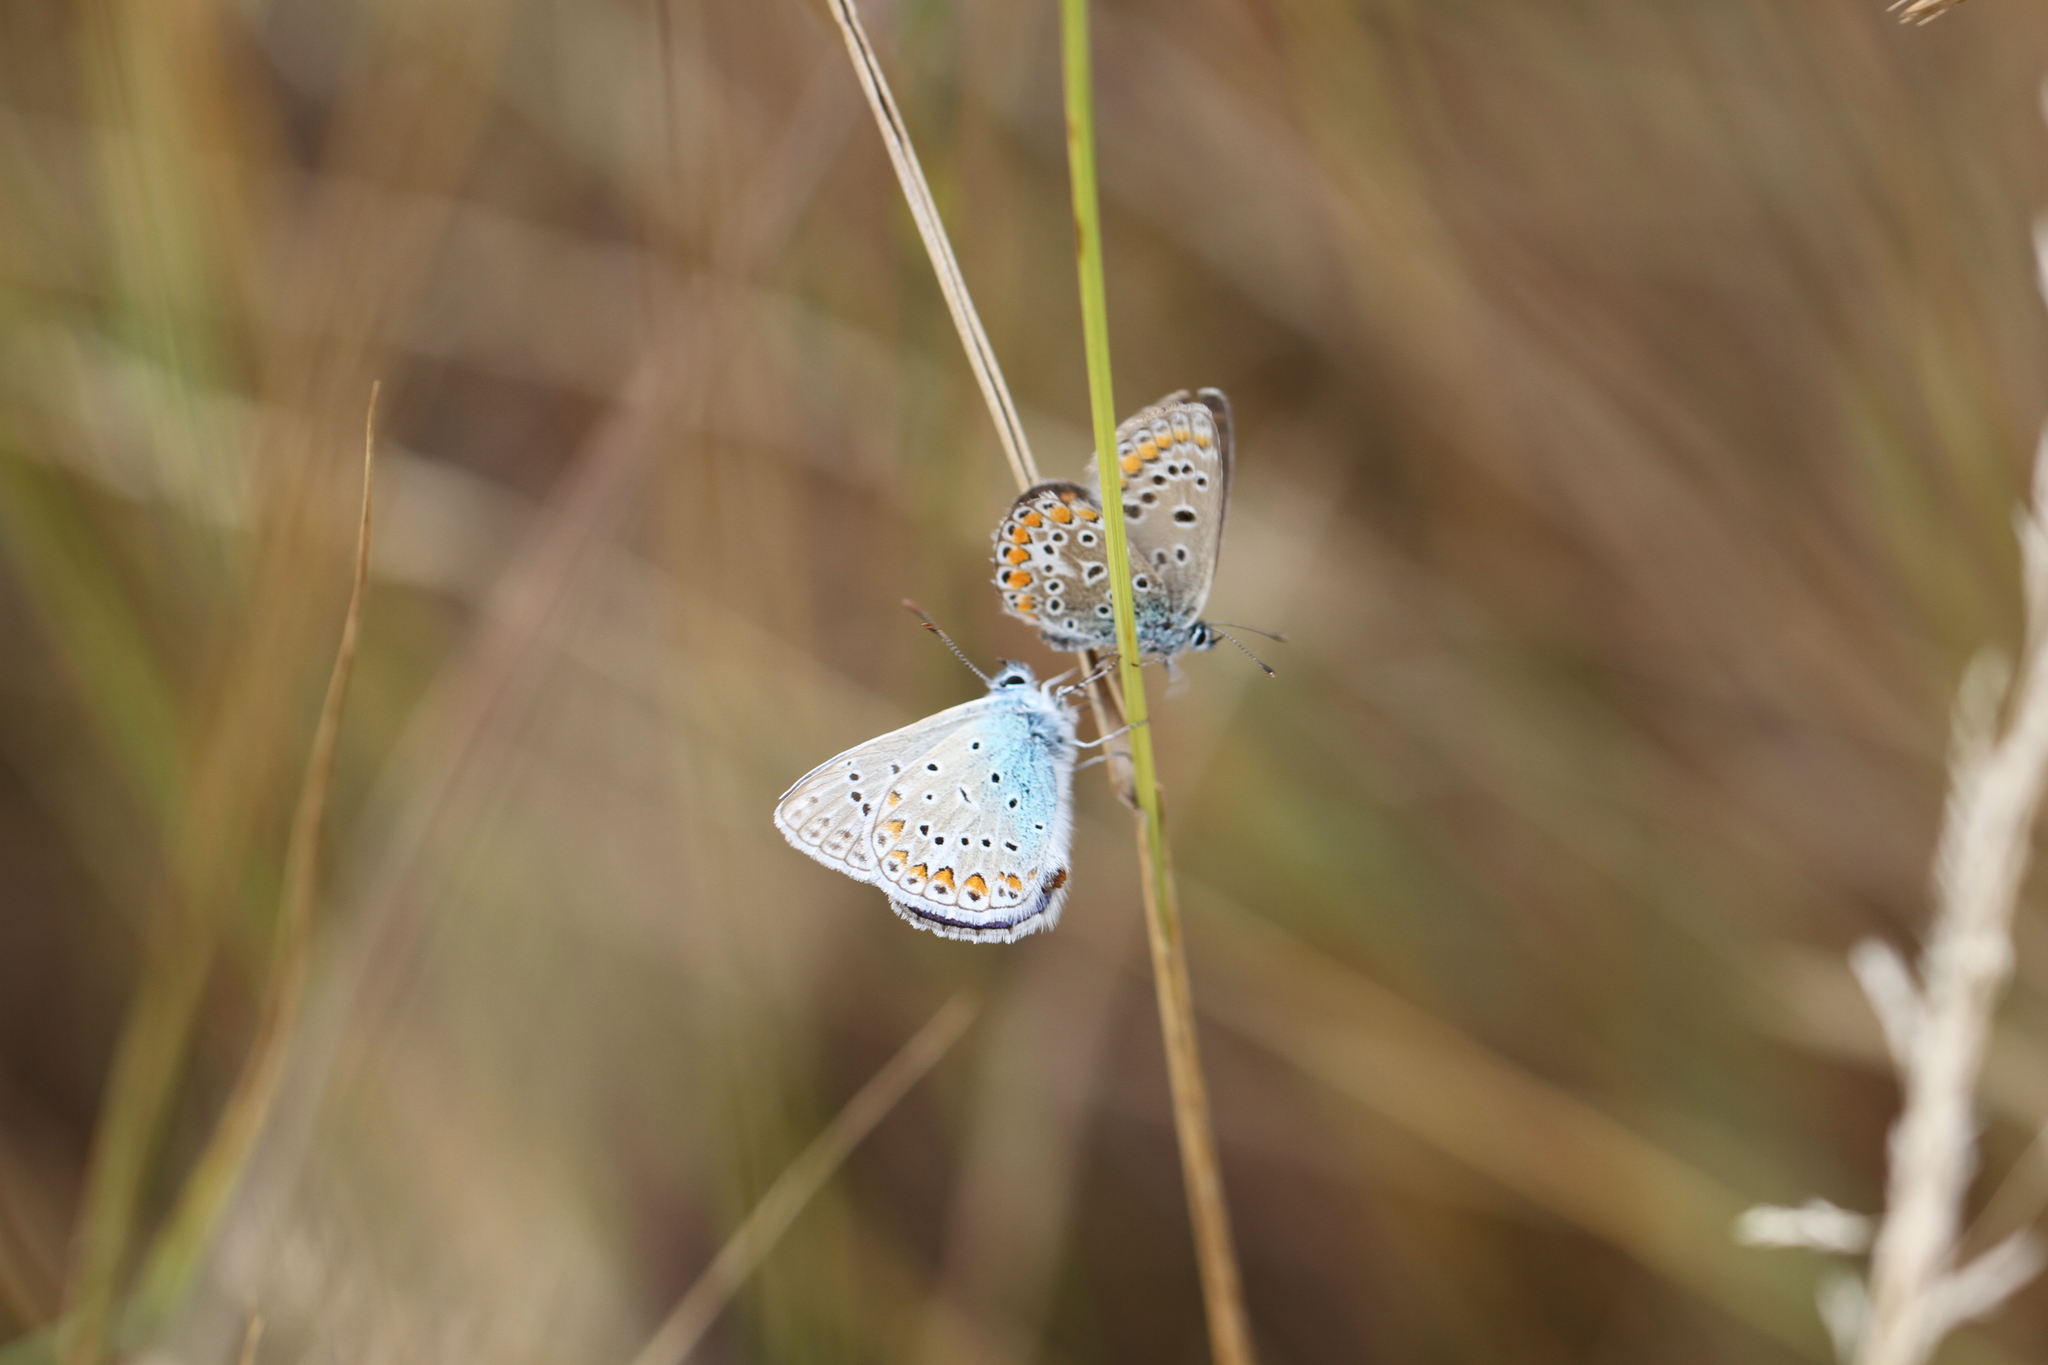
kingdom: Animalia
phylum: Arthropoda
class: Insecta
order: Lepidoptera
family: Lycaenidae
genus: Polyommatus
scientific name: Polyommatus icarus
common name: Common blue
